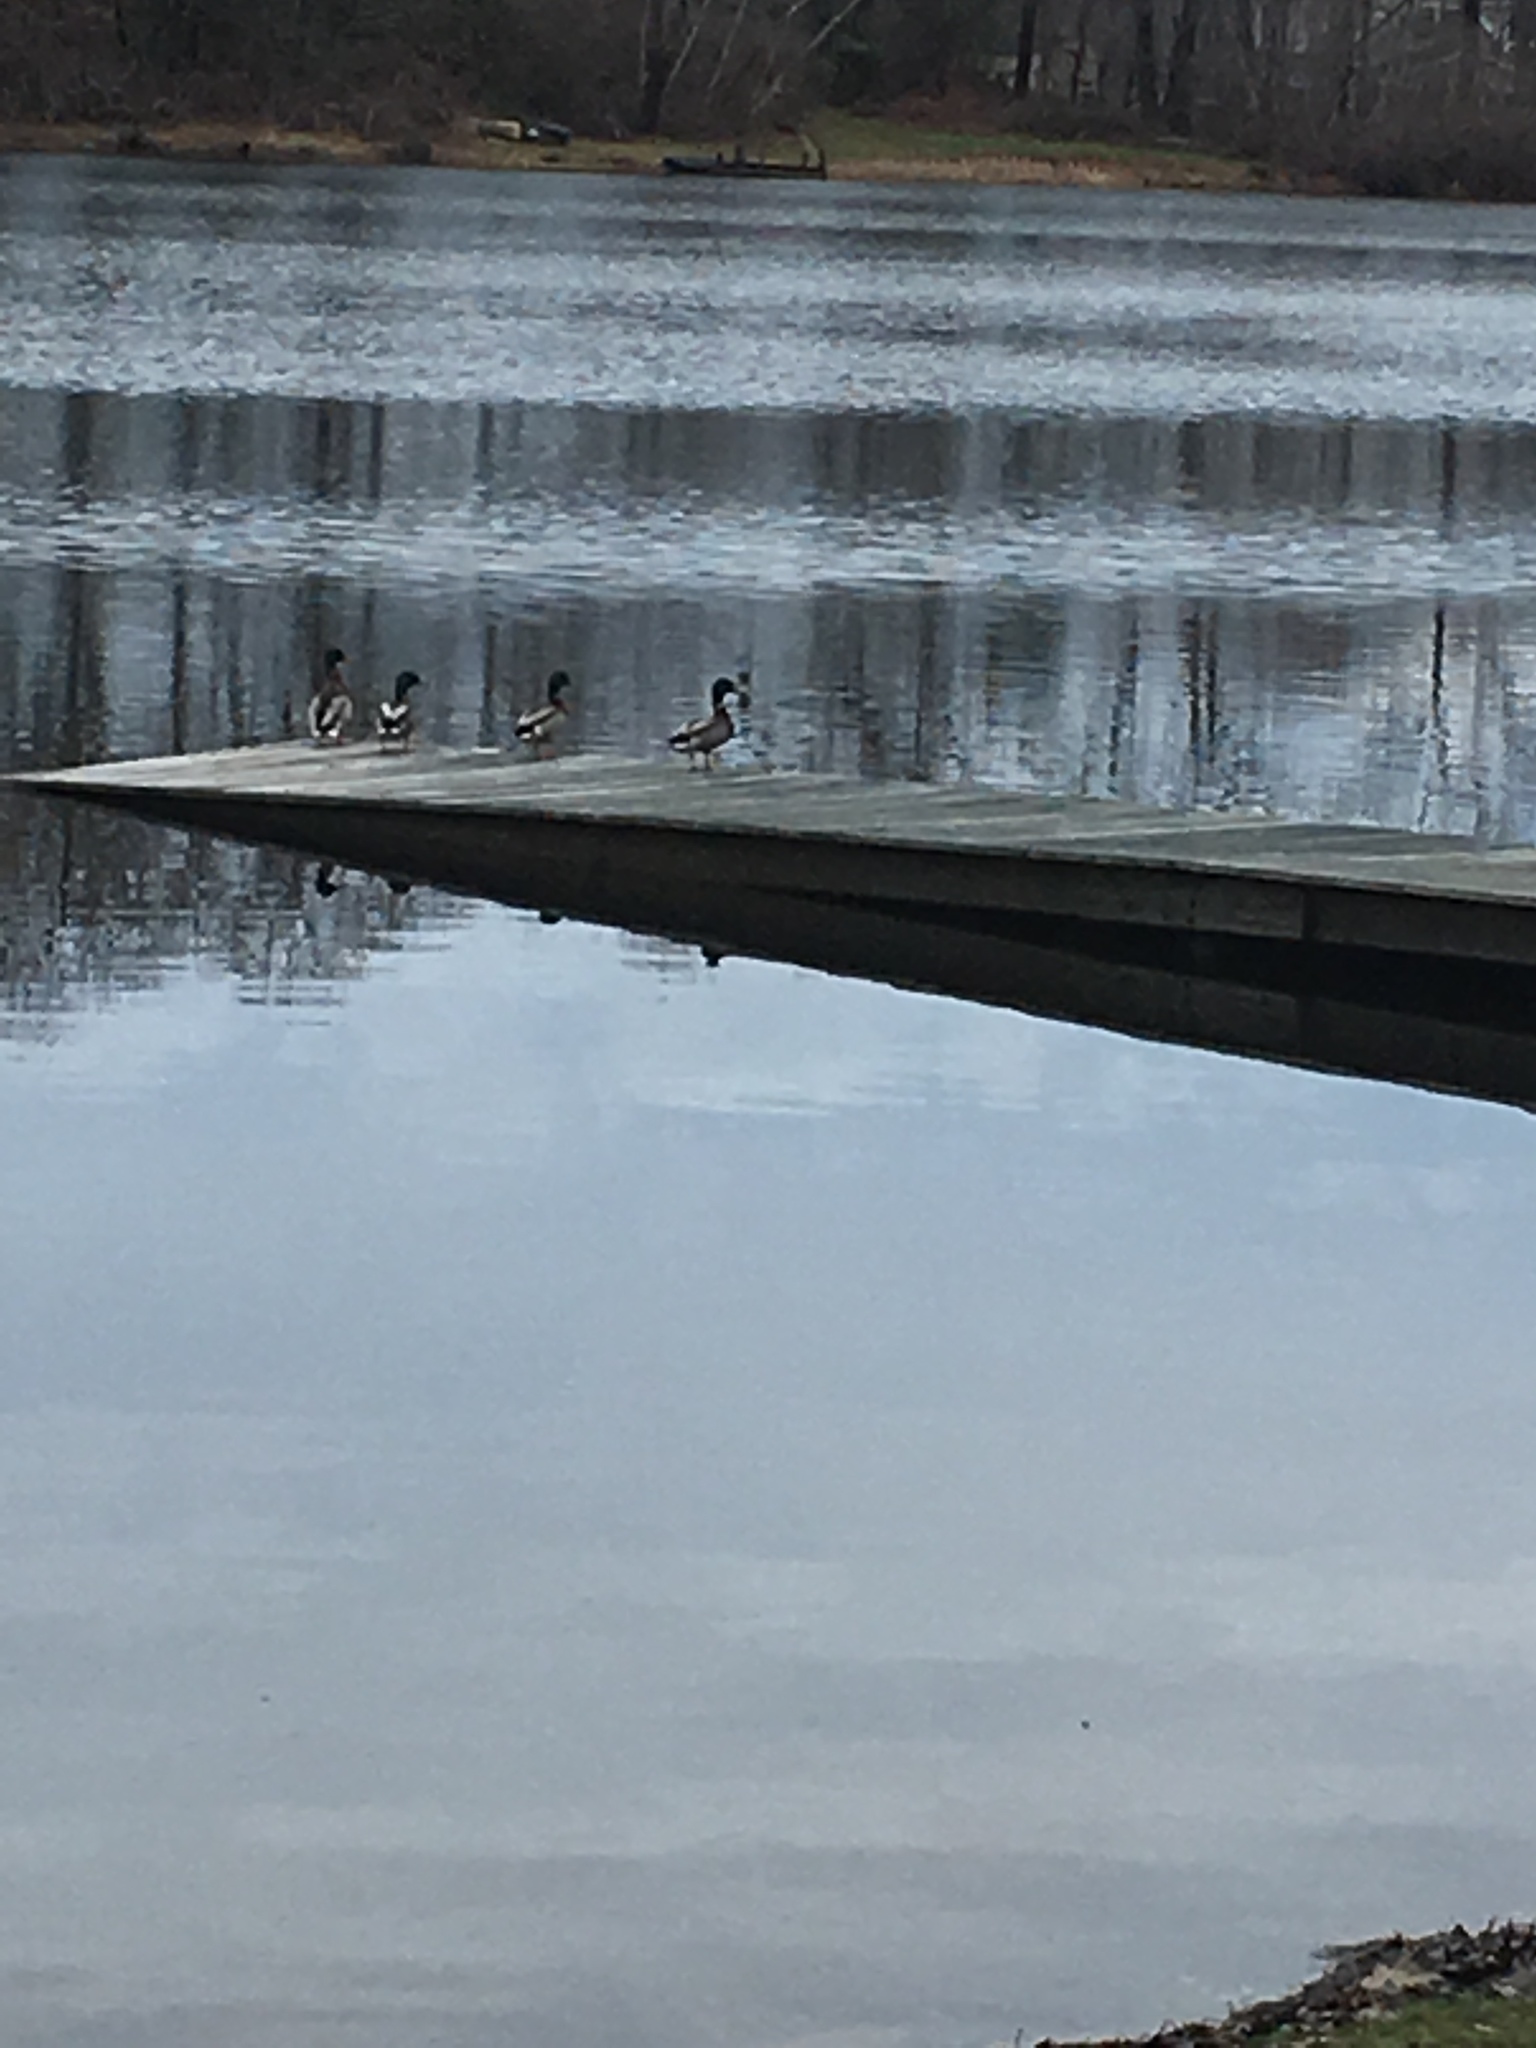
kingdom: Animalia
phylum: Chordata
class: Aves
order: Anseriformes
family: Anatidae
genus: Anas
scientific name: Anas platyrhynchos
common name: Mallard
